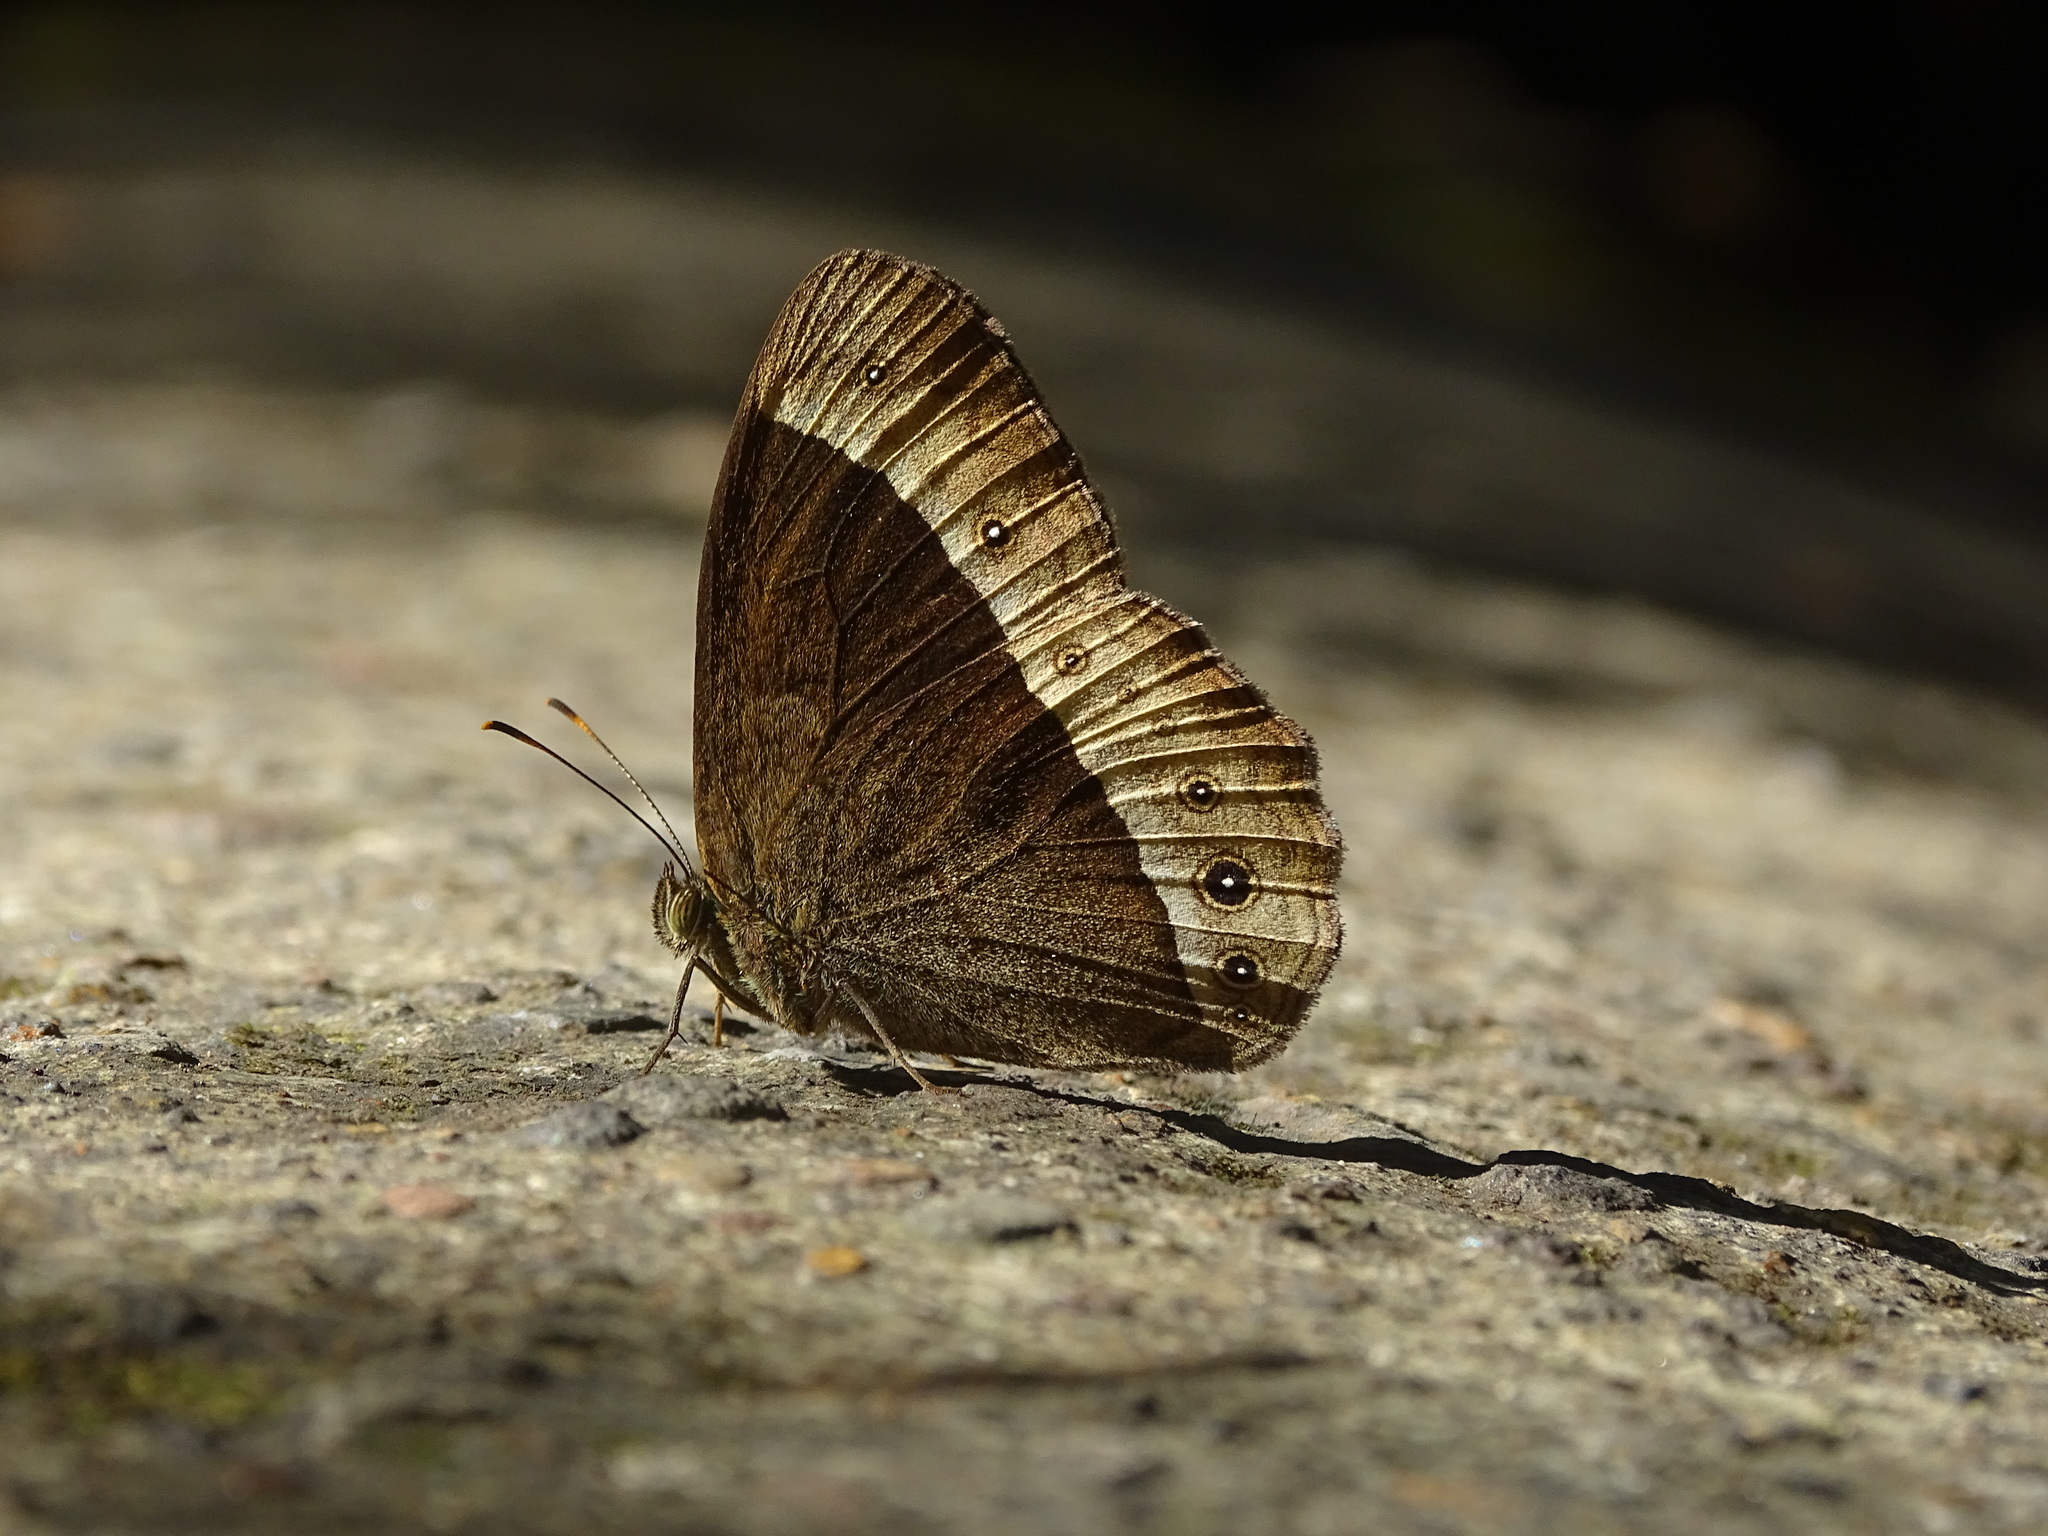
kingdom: Animalia
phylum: Arthropoda
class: Insecta
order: Lepidoptera
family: Nymphalidae
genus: Mycalesis
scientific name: Mycalesis sudra
